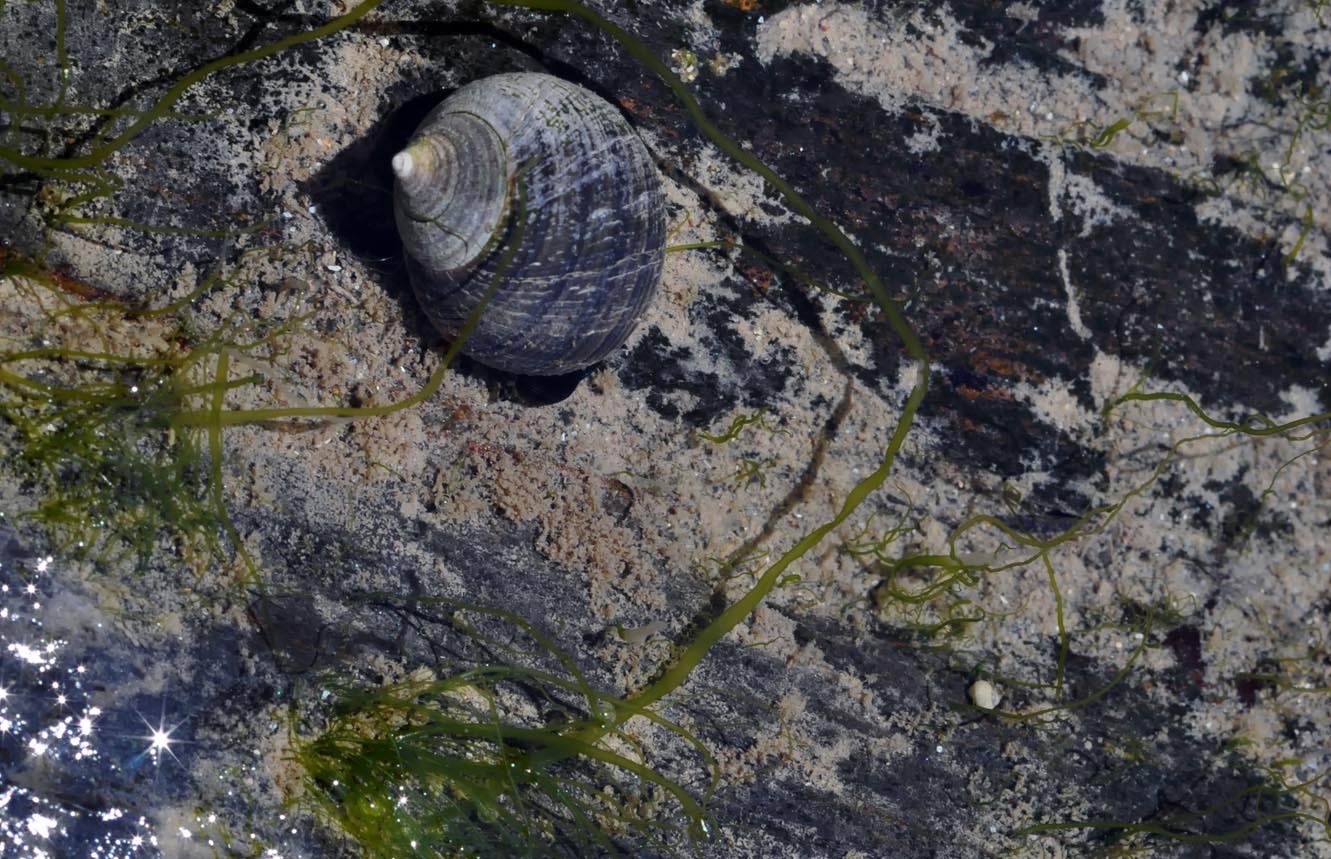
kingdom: Animalia
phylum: Mollusca
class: Gastropoda
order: Littorinimorpha
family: Littorinidae
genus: Littorina
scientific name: Littorina littorea
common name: Common periwinkle
